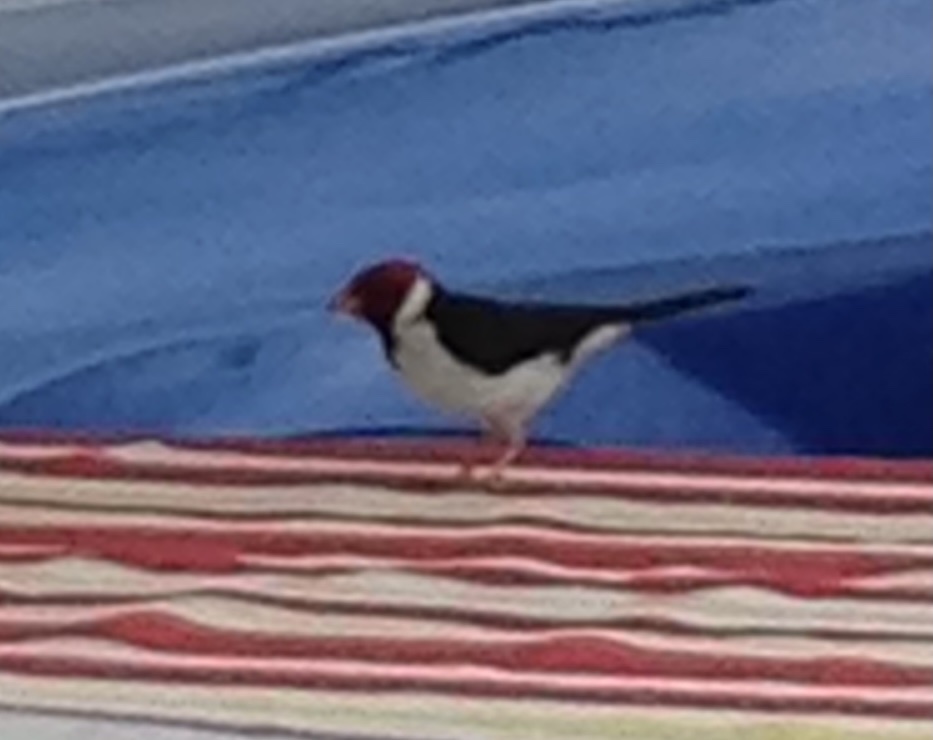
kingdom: Animalia
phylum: Chordata
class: Aves
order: Passeriformes
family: Thraupidae
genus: Paroaria
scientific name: Paroaria capitata
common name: Yellow-billed cardinal
